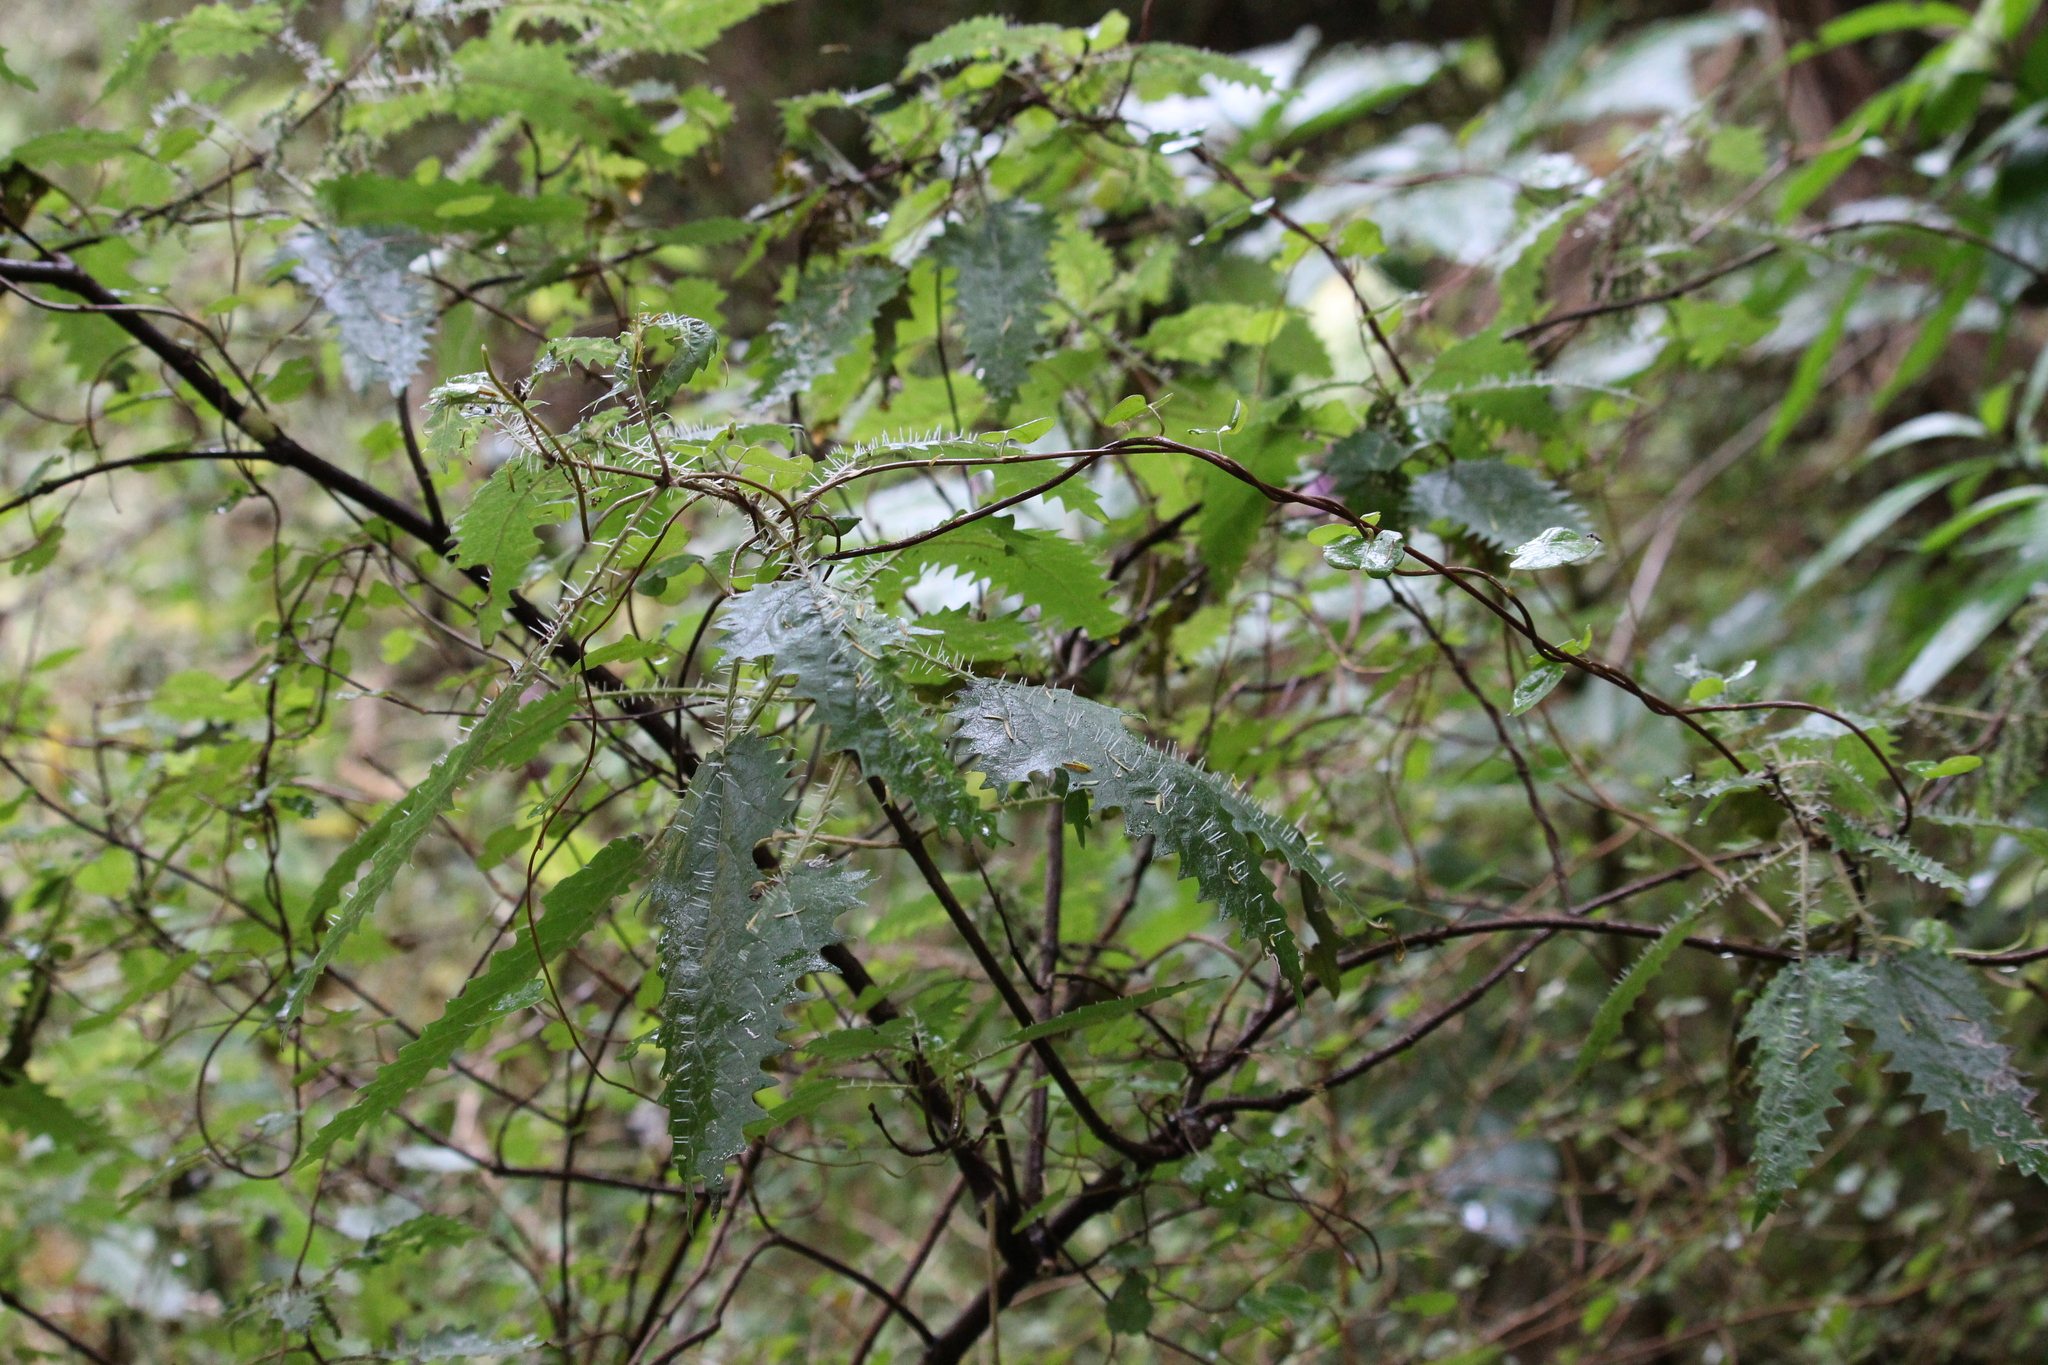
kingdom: Plantae
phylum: Tracheophyta
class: Magnoliopsida
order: Rosales
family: Urticaceae
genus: Urtica
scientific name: Urtica ferox
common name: Tree nettle
